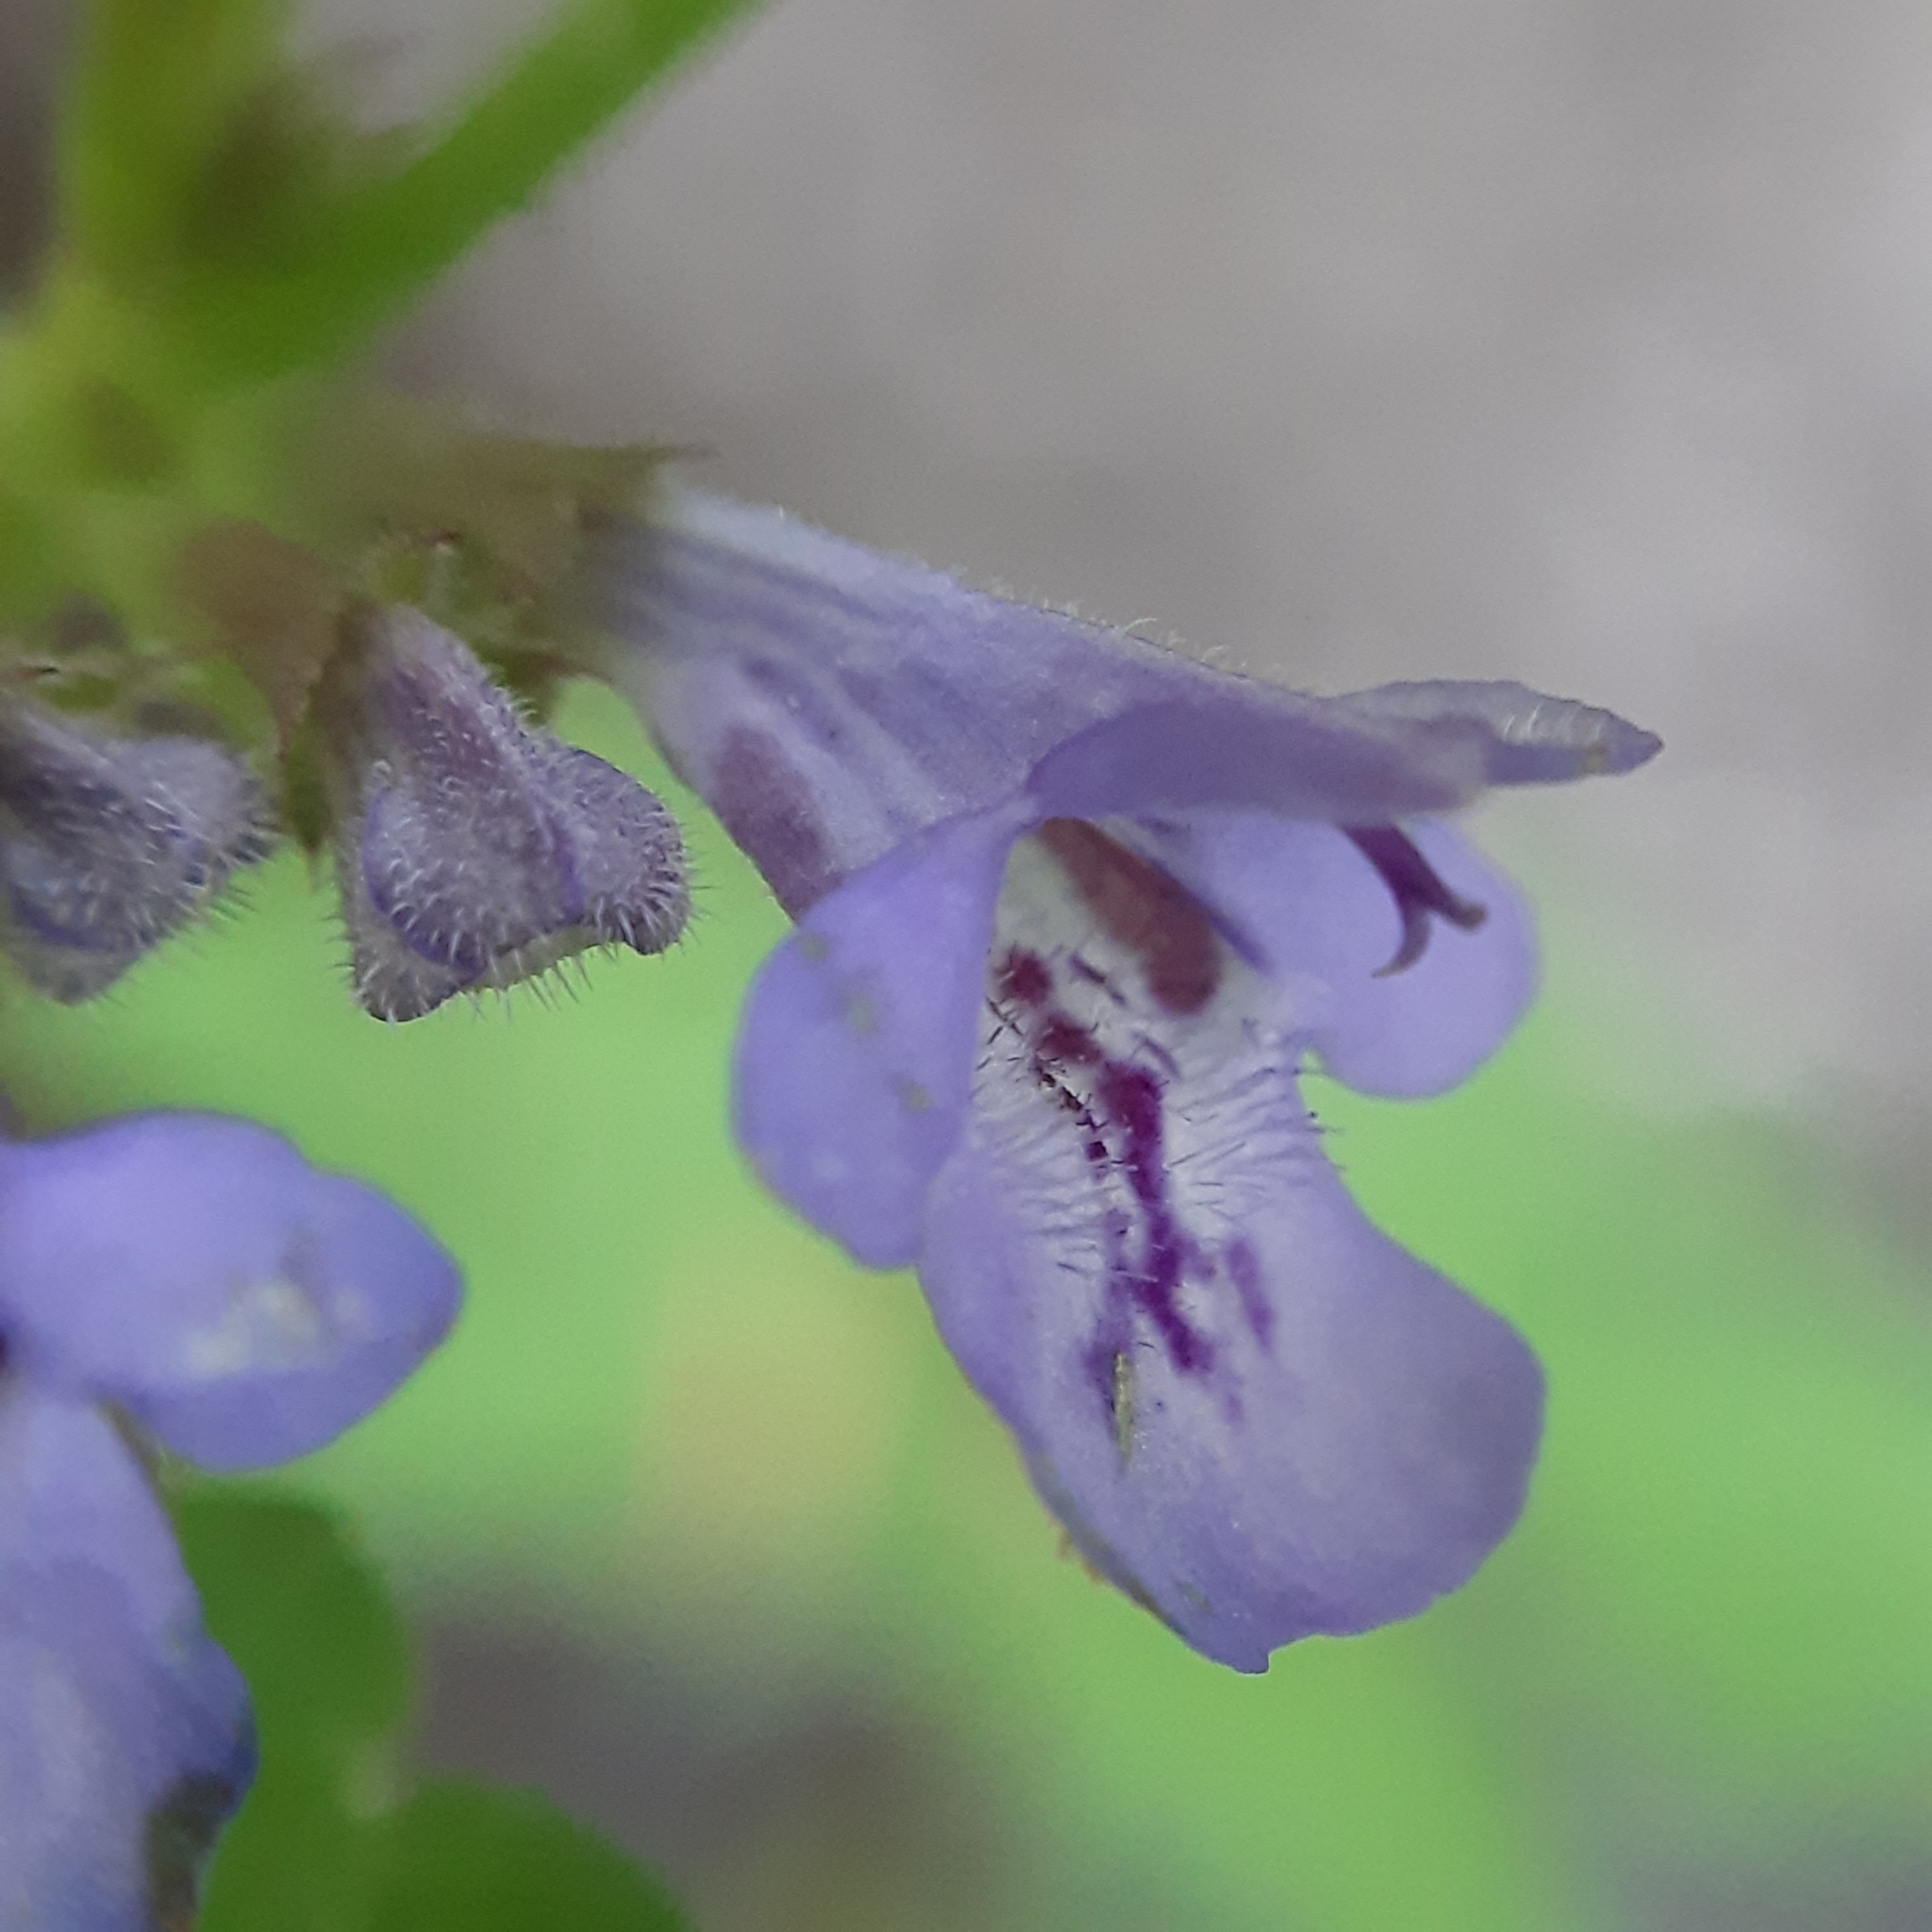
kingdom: Plantae
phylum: Tracheophyta
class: Magnoliopsida
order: Lamiales
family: Lamiaceae
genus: Glechoma
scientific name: Glechoma hederacea
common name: Ground ivy
